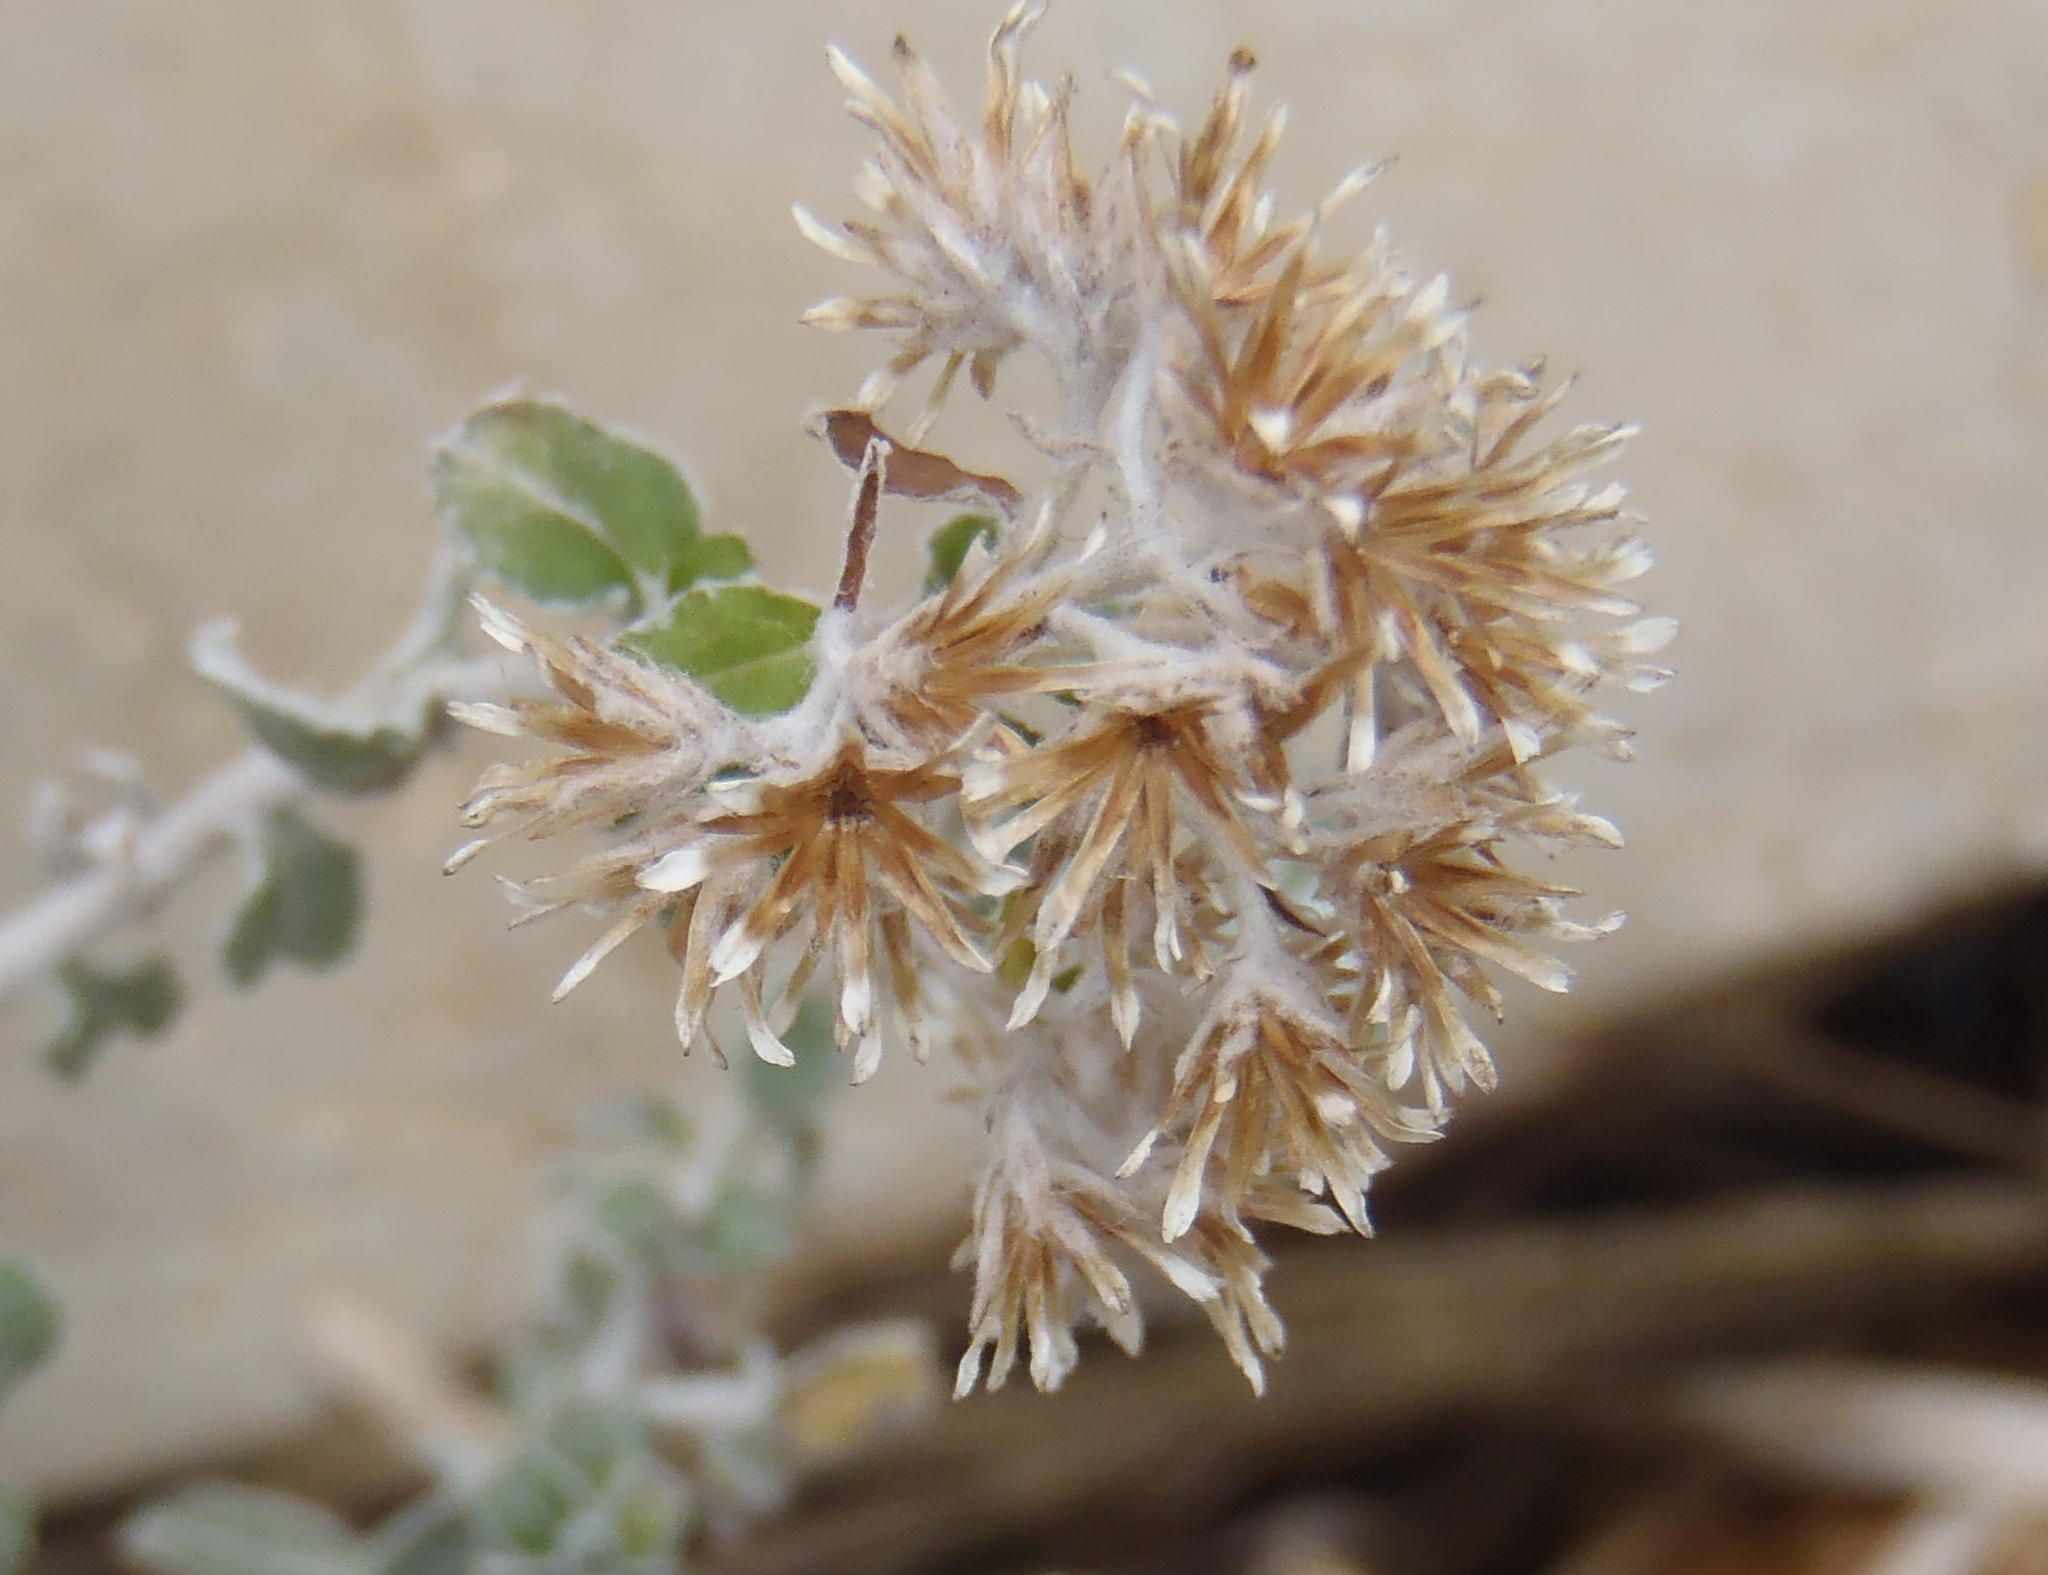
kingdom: Plantae
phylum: Tracheophyta
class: Magnoliopsida
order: Asterales
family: Asteraceae
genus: Plecostachys
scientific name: Plecostachys serpyllifolia
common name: Petite licorice
